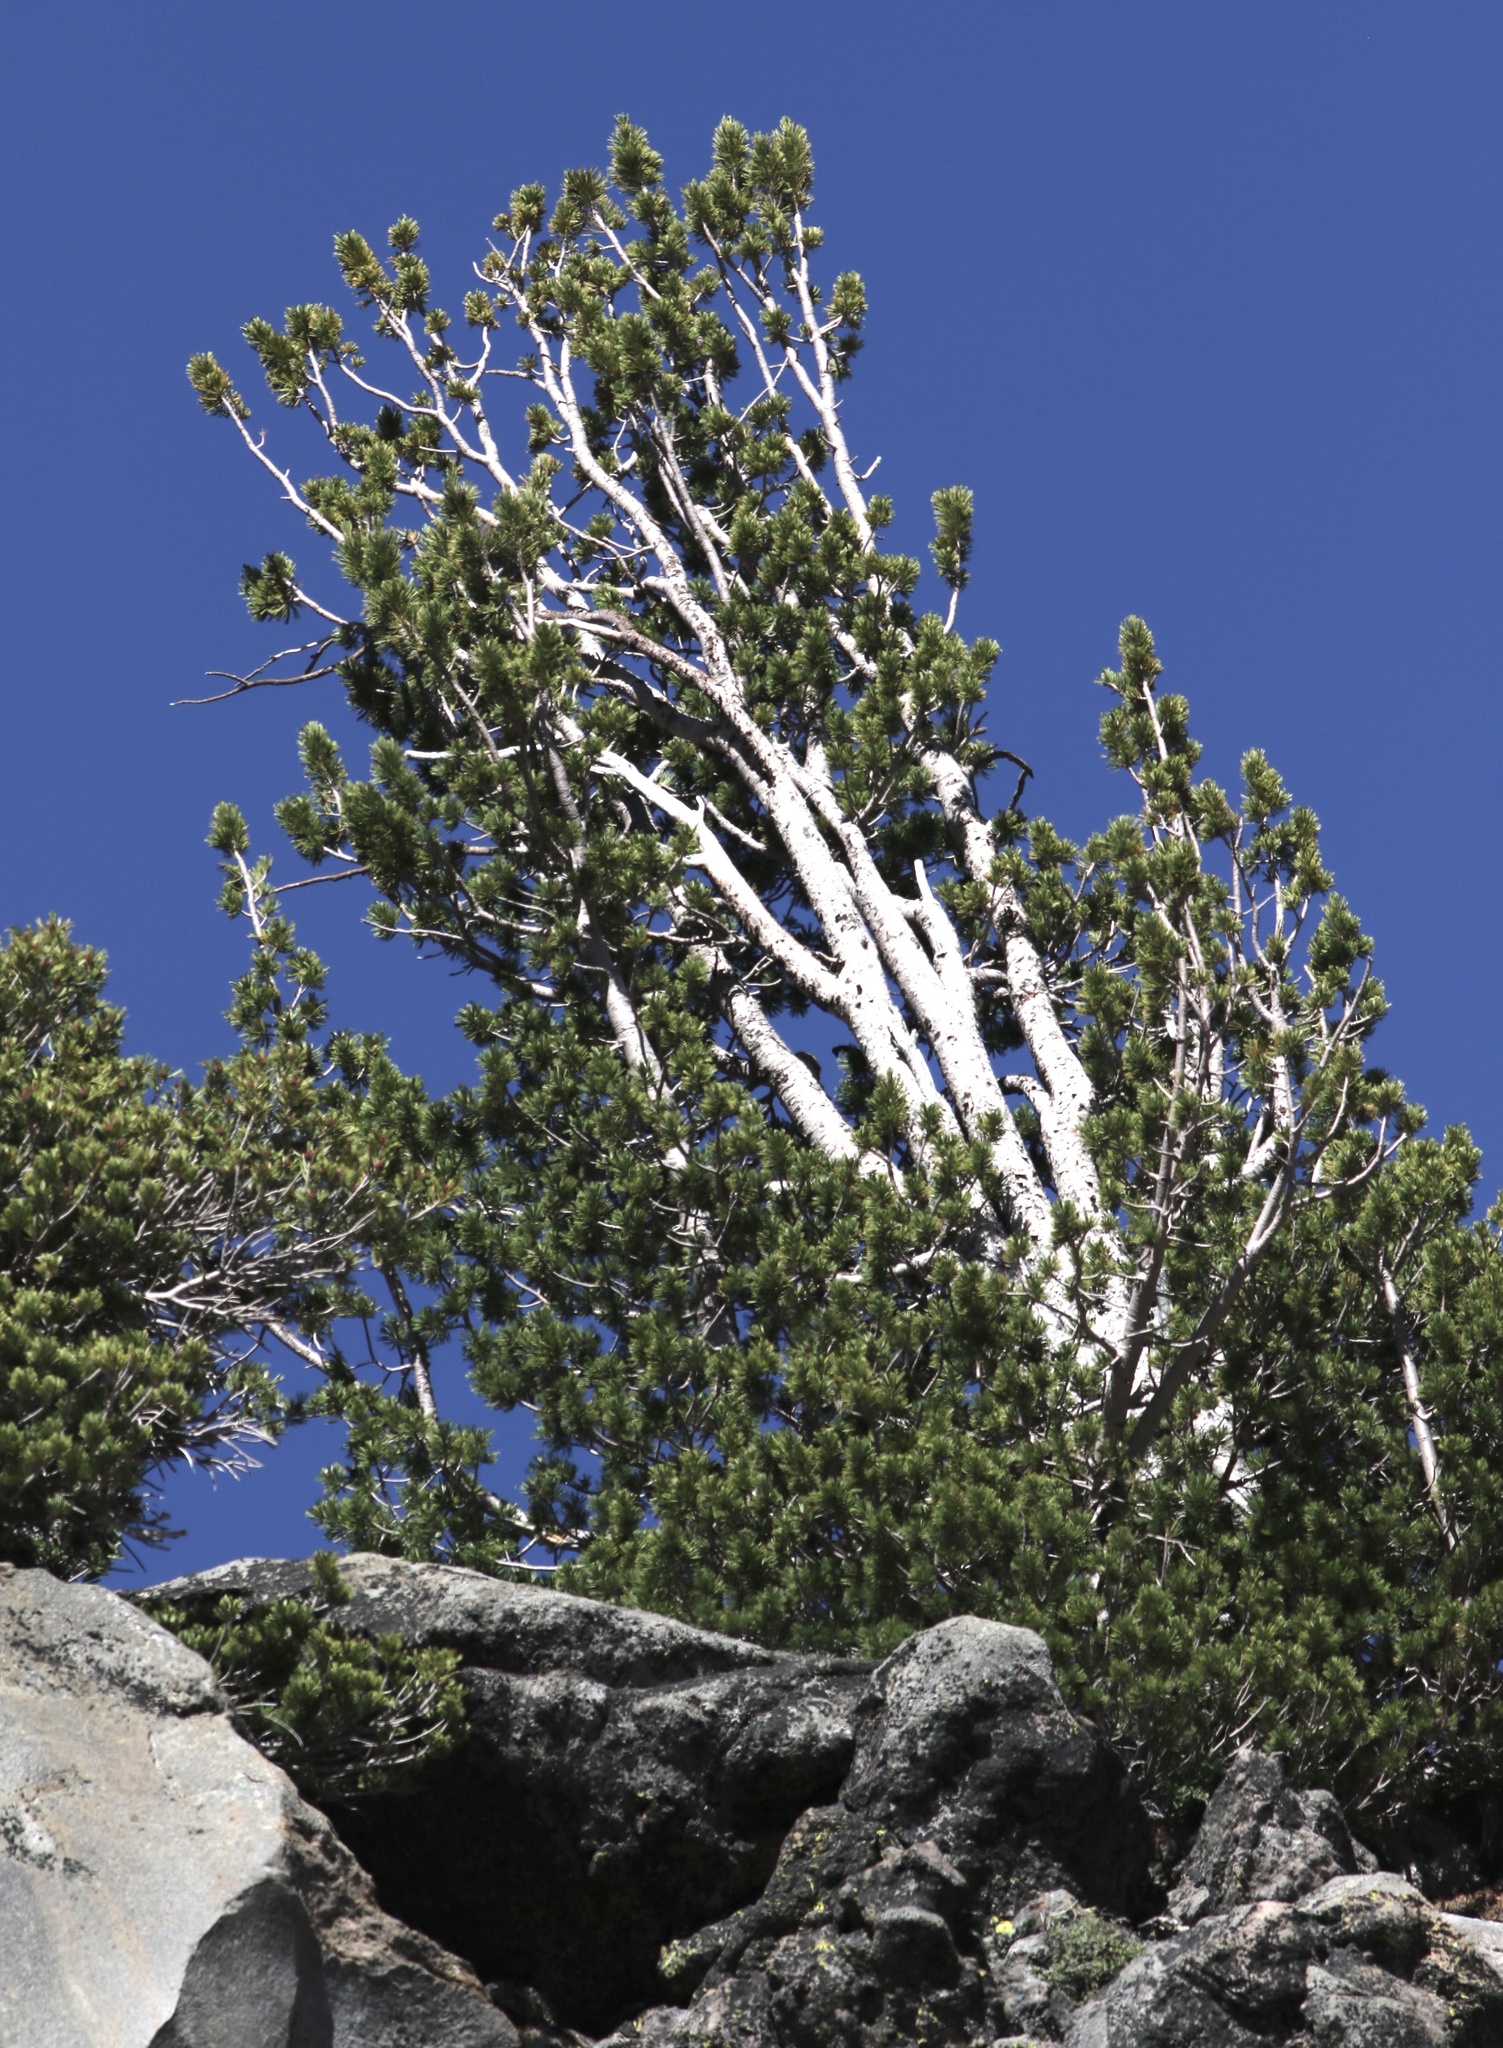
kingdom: Plantae
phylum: Tracheophyta
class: Pinopsida
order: Pinales
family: Pinaceae
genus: Pinus
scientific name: Pinus albicaulis
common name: Whitebark pine
